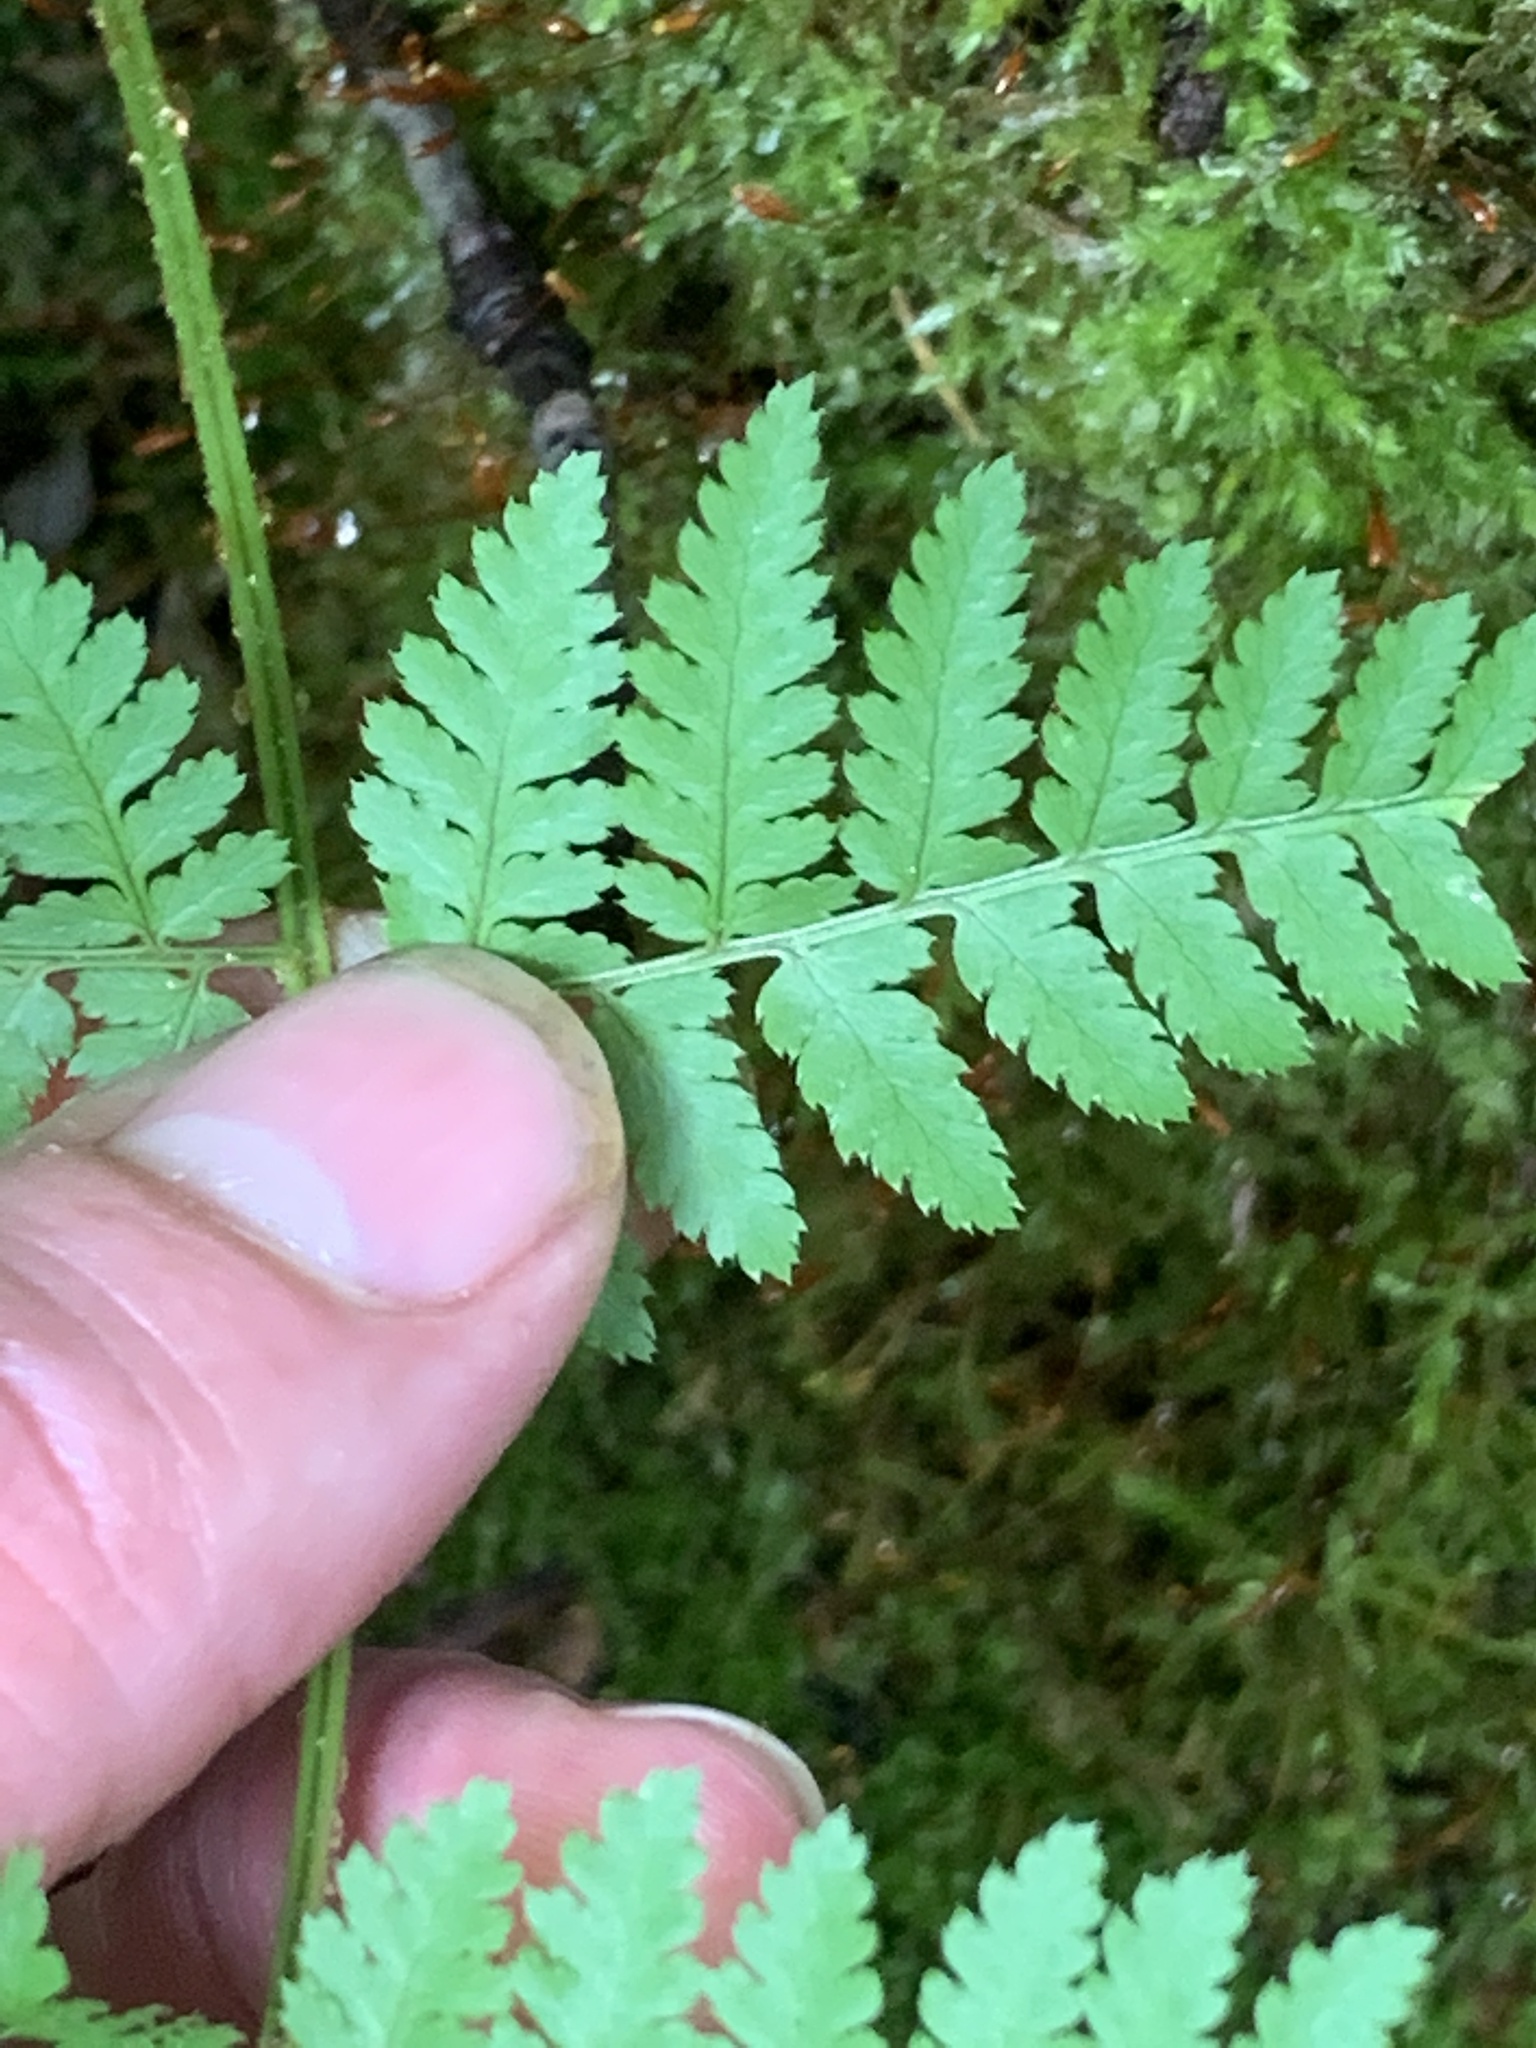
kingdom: Plantae
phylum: Tracheophyta
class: Polypodiopsida
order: Polypodiales
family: Dryopteridaceae
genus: Dryopteris
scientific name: Dryopteris intermedia
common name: Evergreen wood fern
